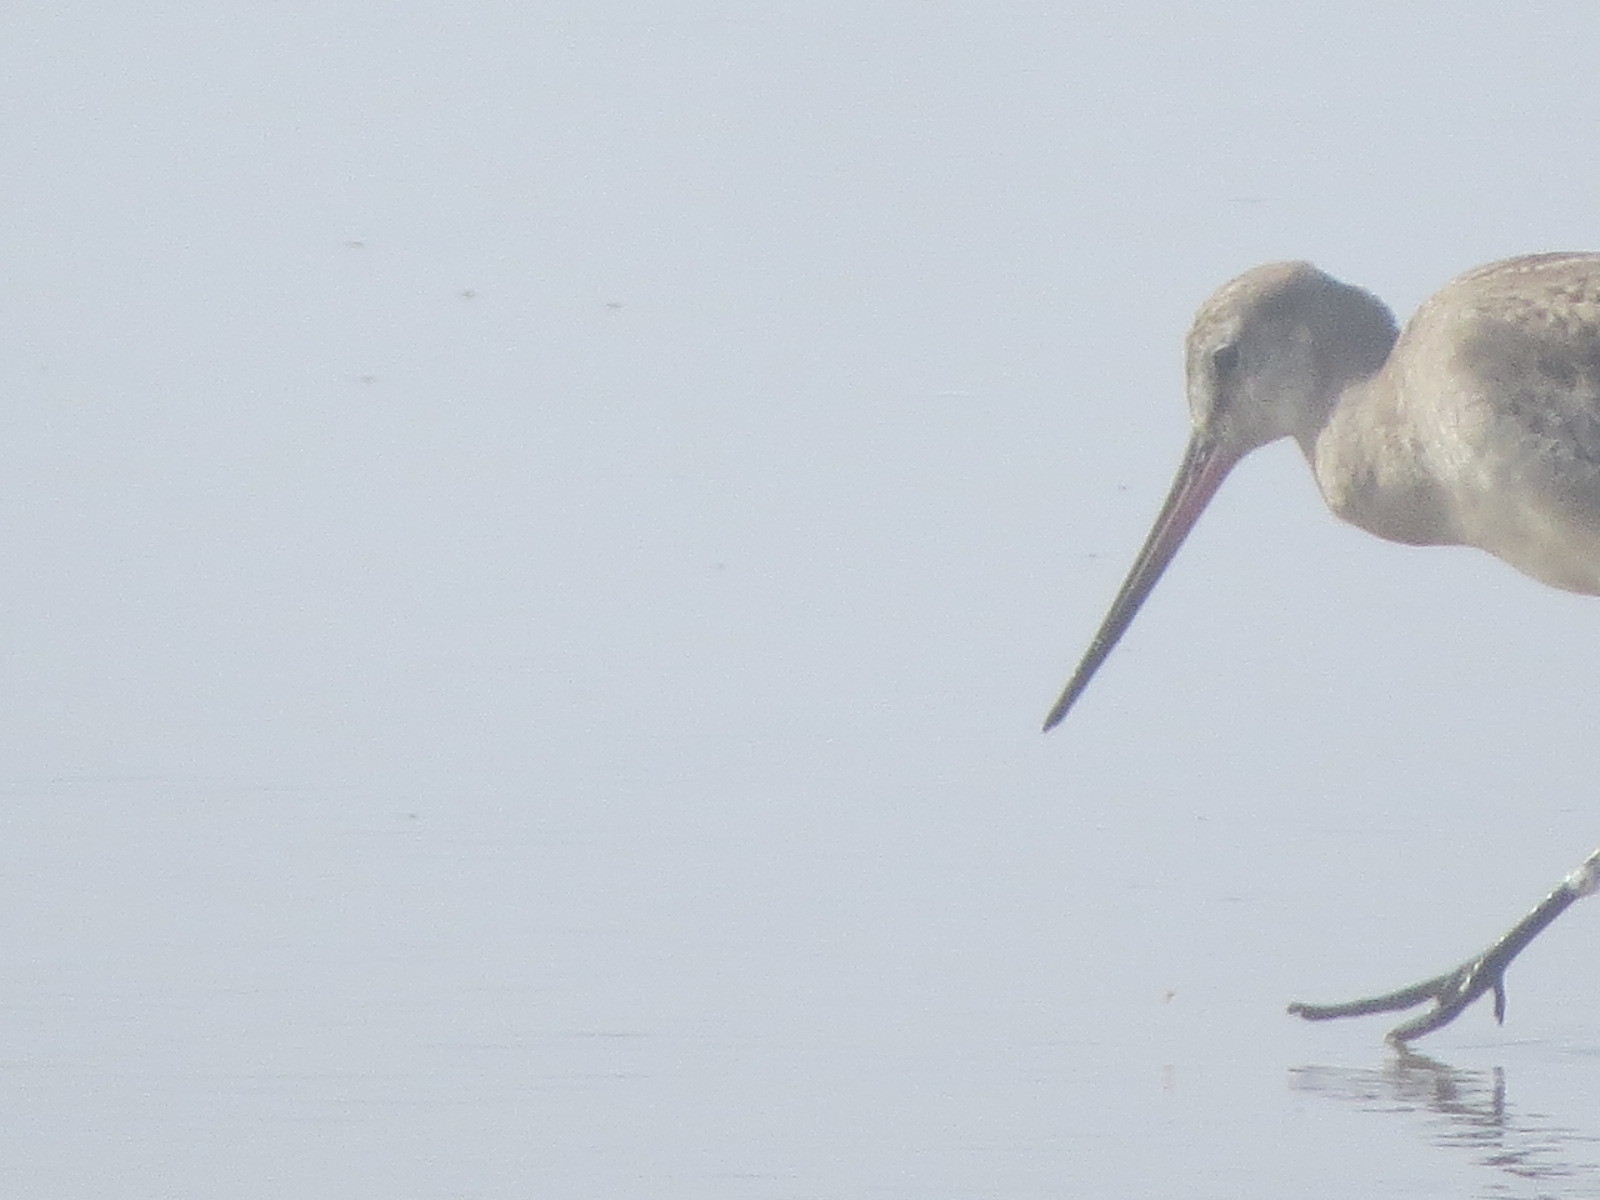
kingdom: Animalia
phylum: Chordata
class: Aves
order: Charadriiformes
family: Scolopacidae
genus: Limosa
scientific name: Limosa haemastica
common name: Hudsonian godwit
